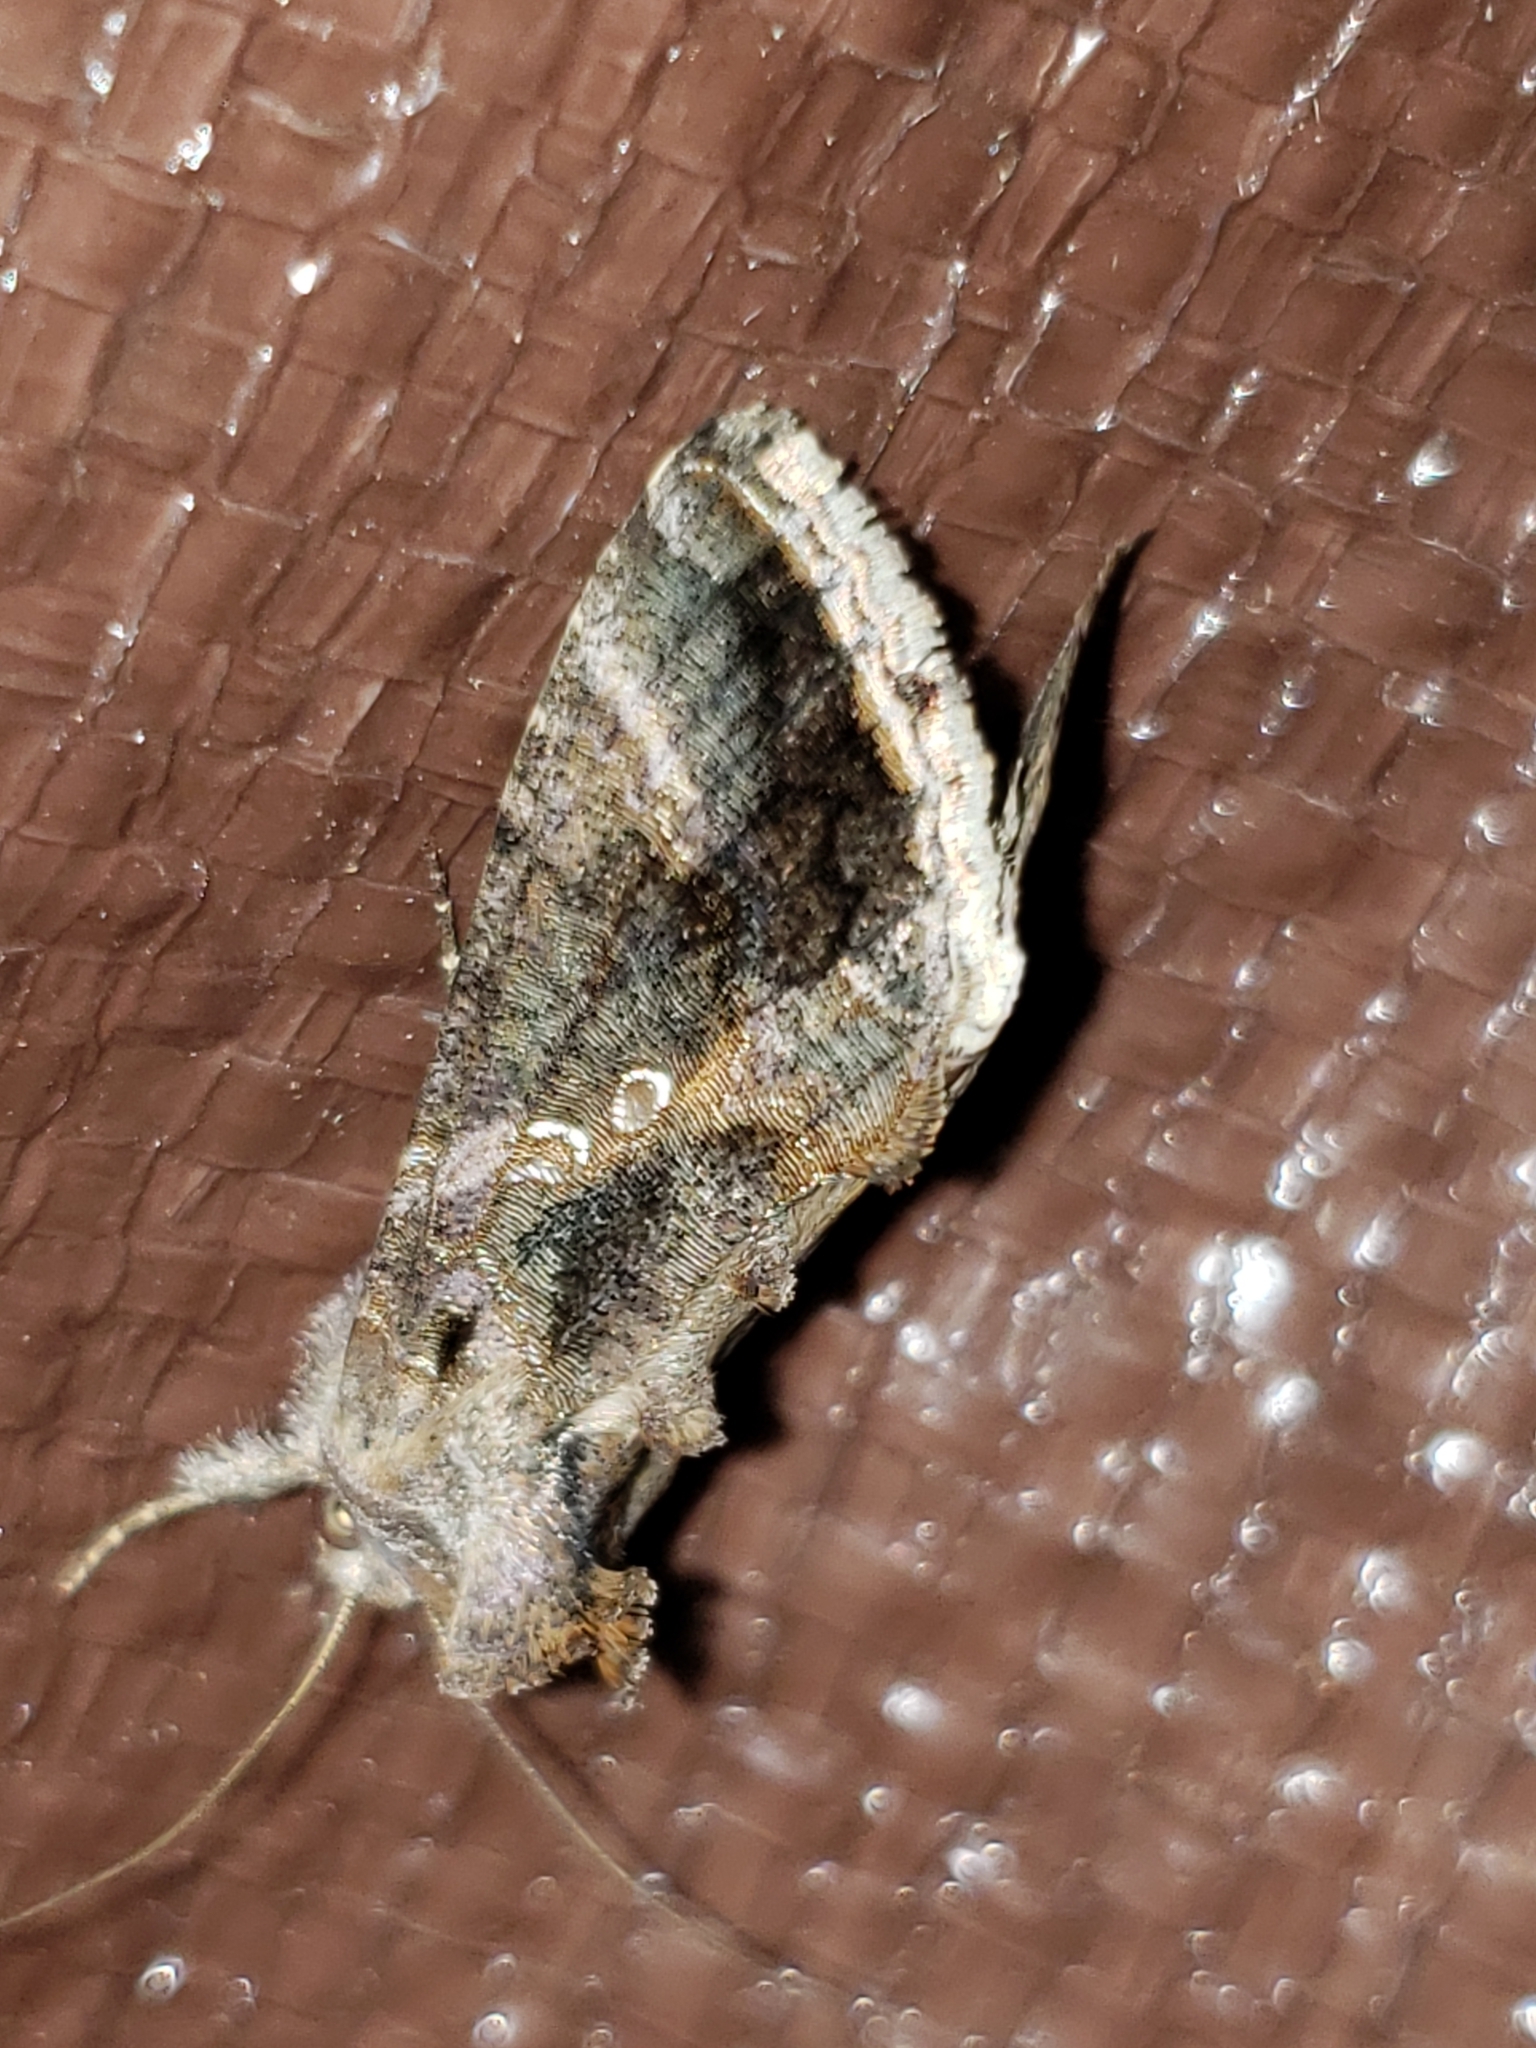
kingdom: Animalia
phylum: Arthropoda
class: Insecta
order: Lepidoptera
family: Noctuidae
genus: Chrysodeixis
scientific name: Chrysodeixis includens
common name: Cutworm moth
